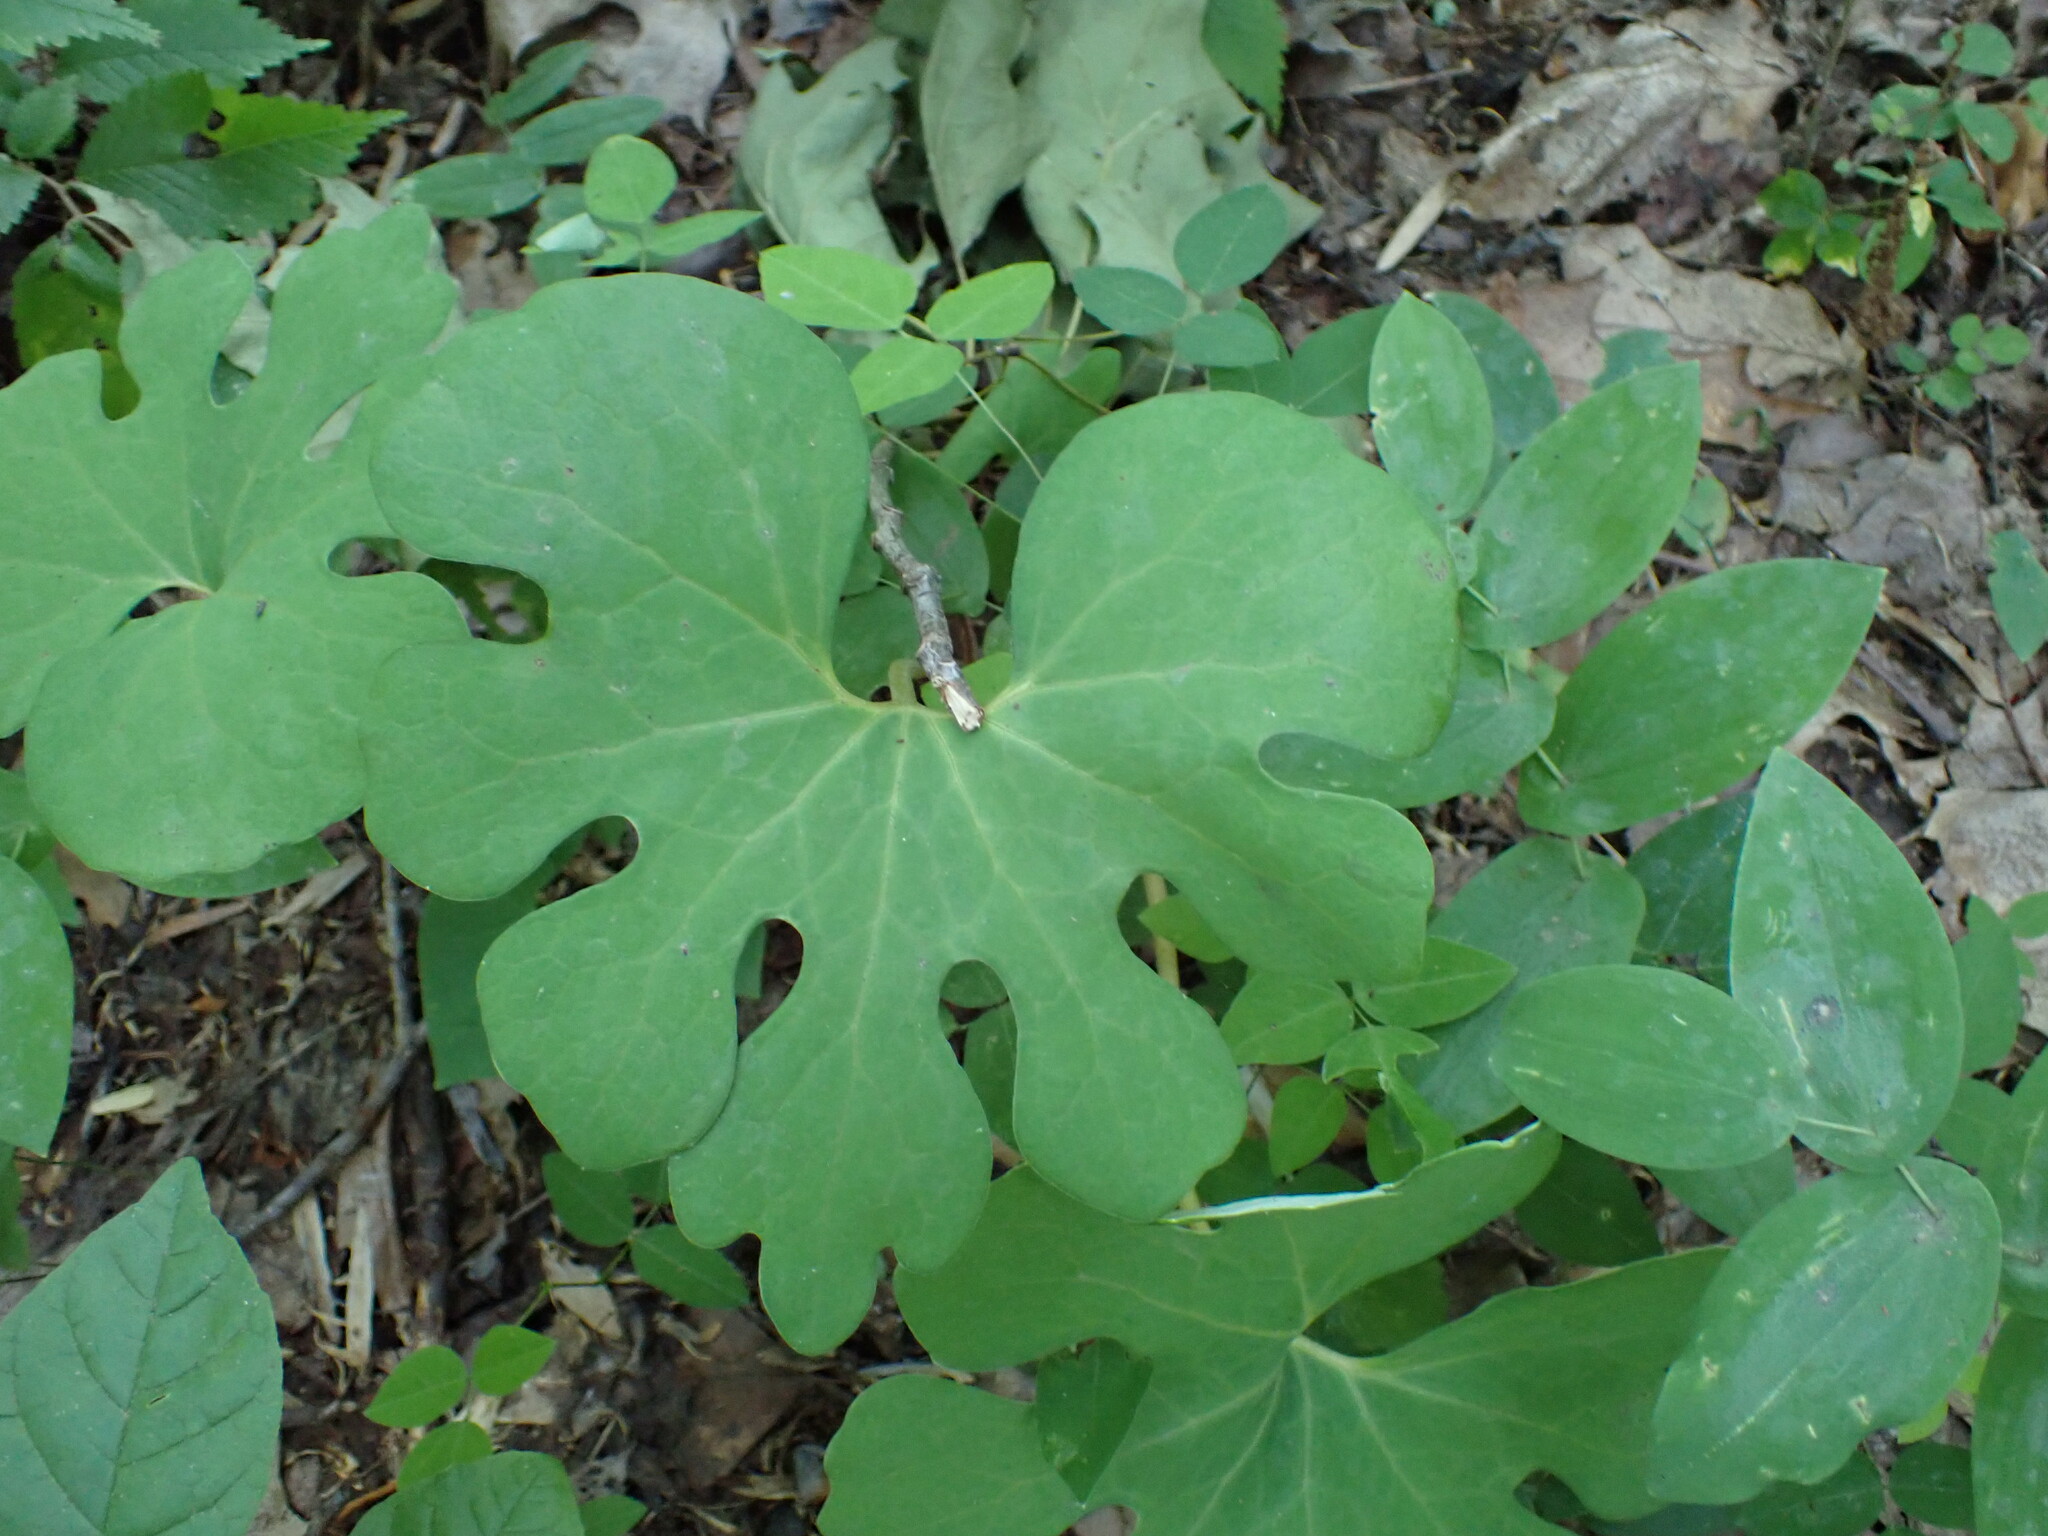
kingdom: Plantae
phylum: Tracheophyta
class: Magnoliopsida
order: Ranunculales
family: Papaveraceae
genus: Sanguinaria
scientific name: Sanguinaria canadensis
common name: Bloodroot
